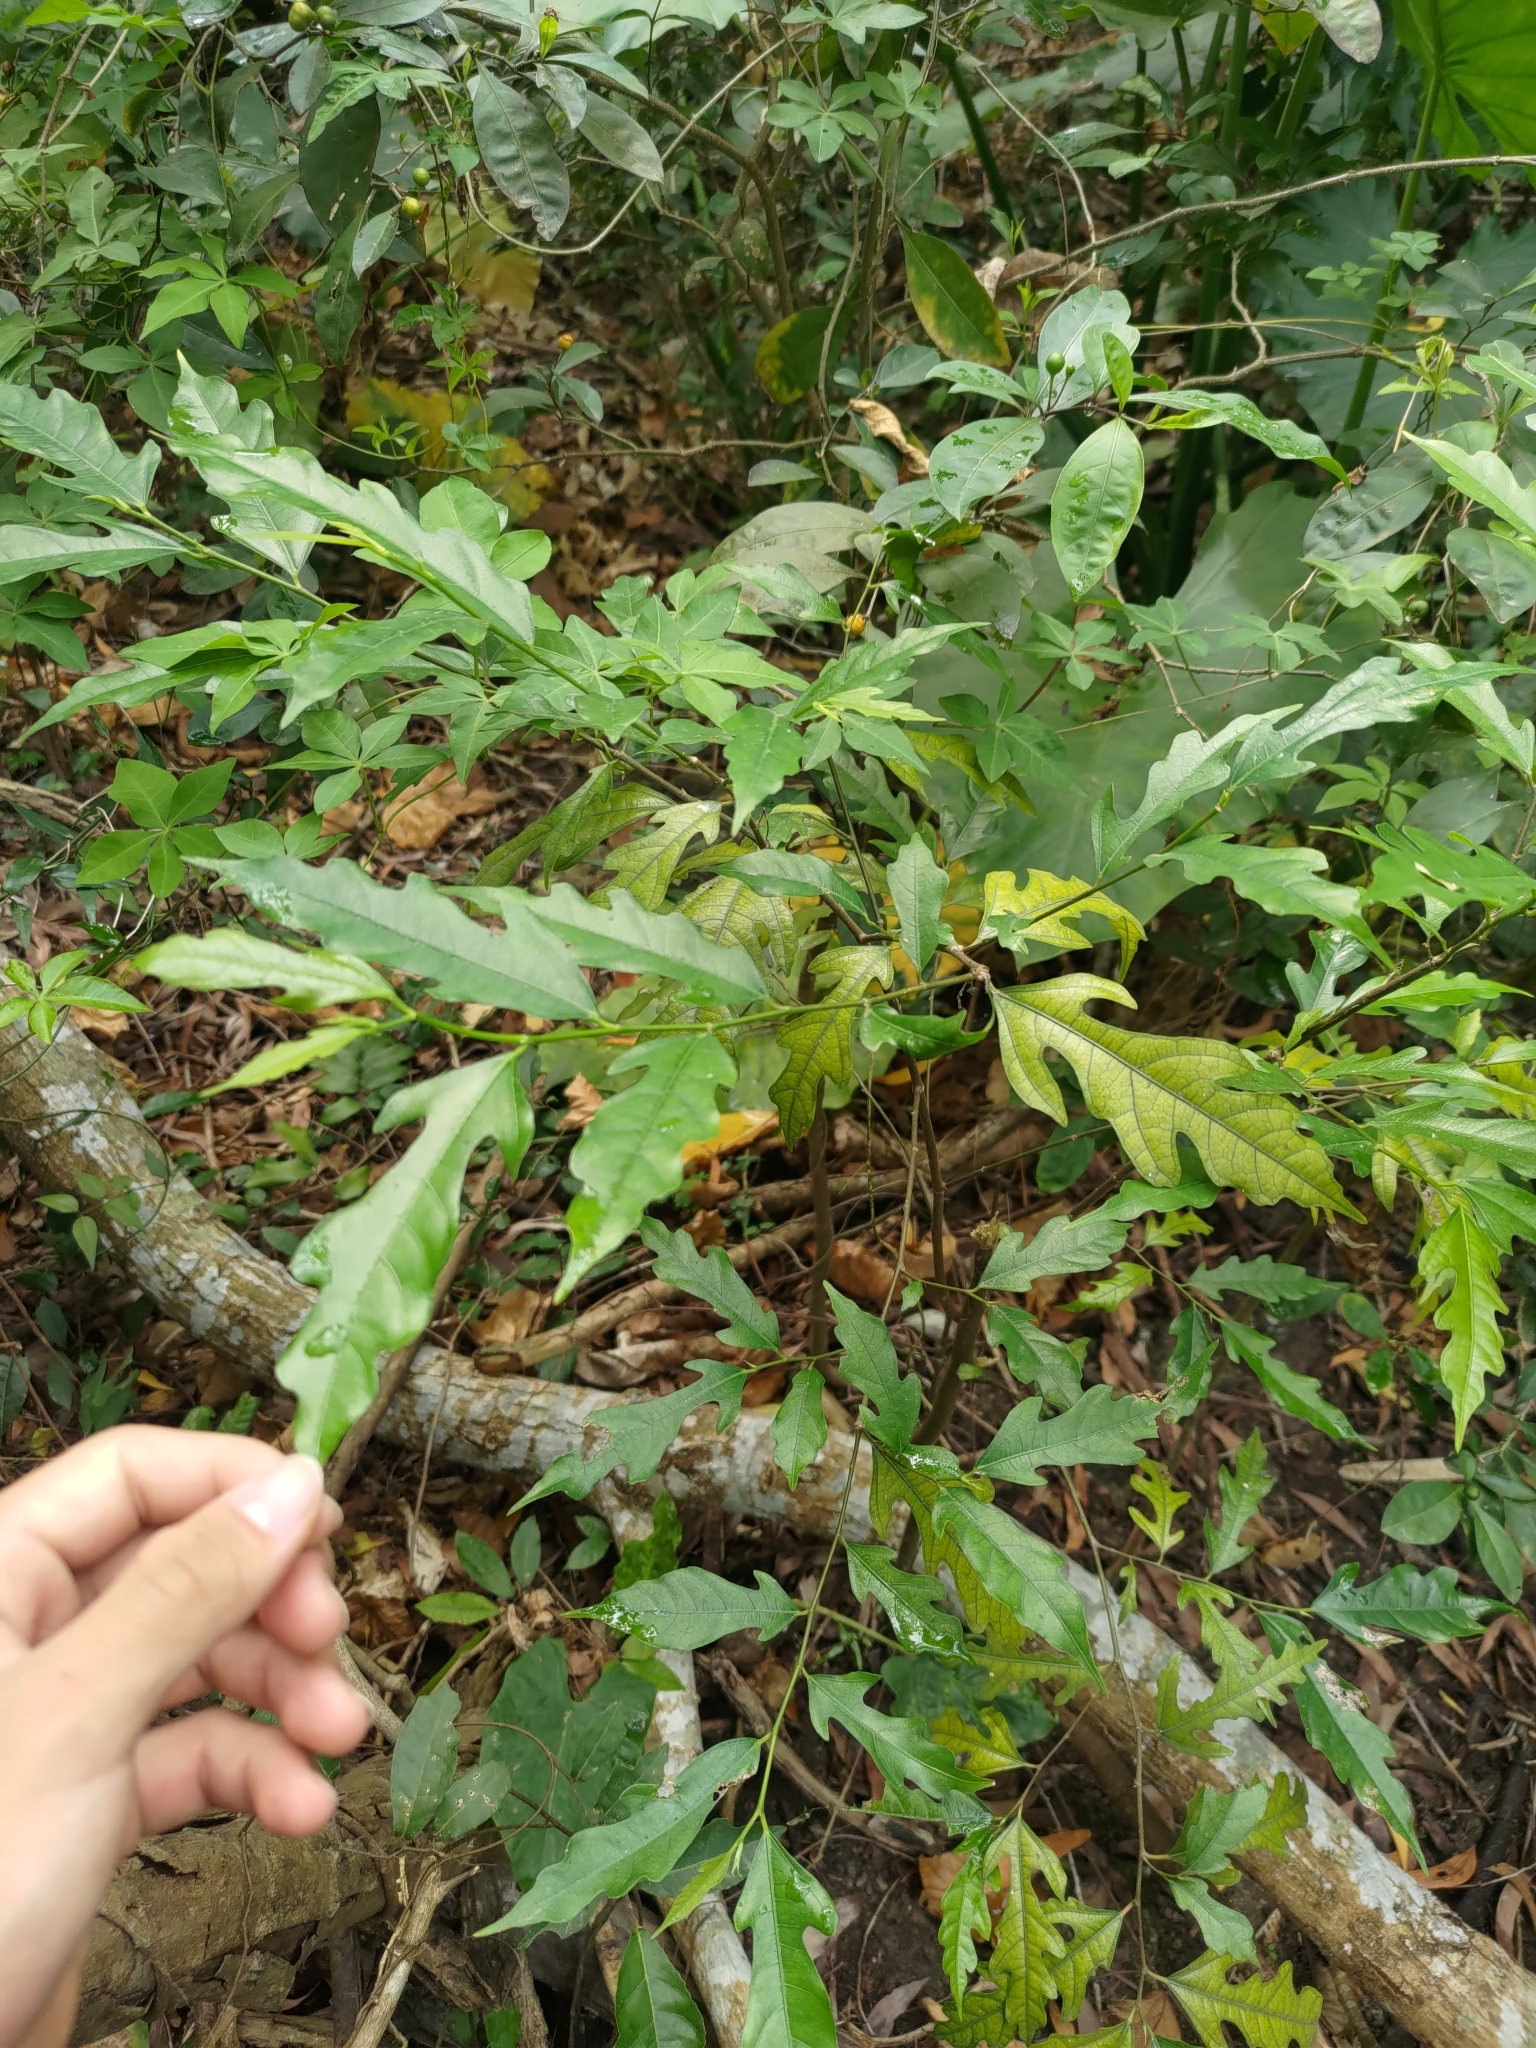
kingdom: Plantae
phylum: Tracheophyta
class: Magnoliopsida
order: Rosales
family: Moraceae
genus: Ficus
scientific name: Ficus ampelos
